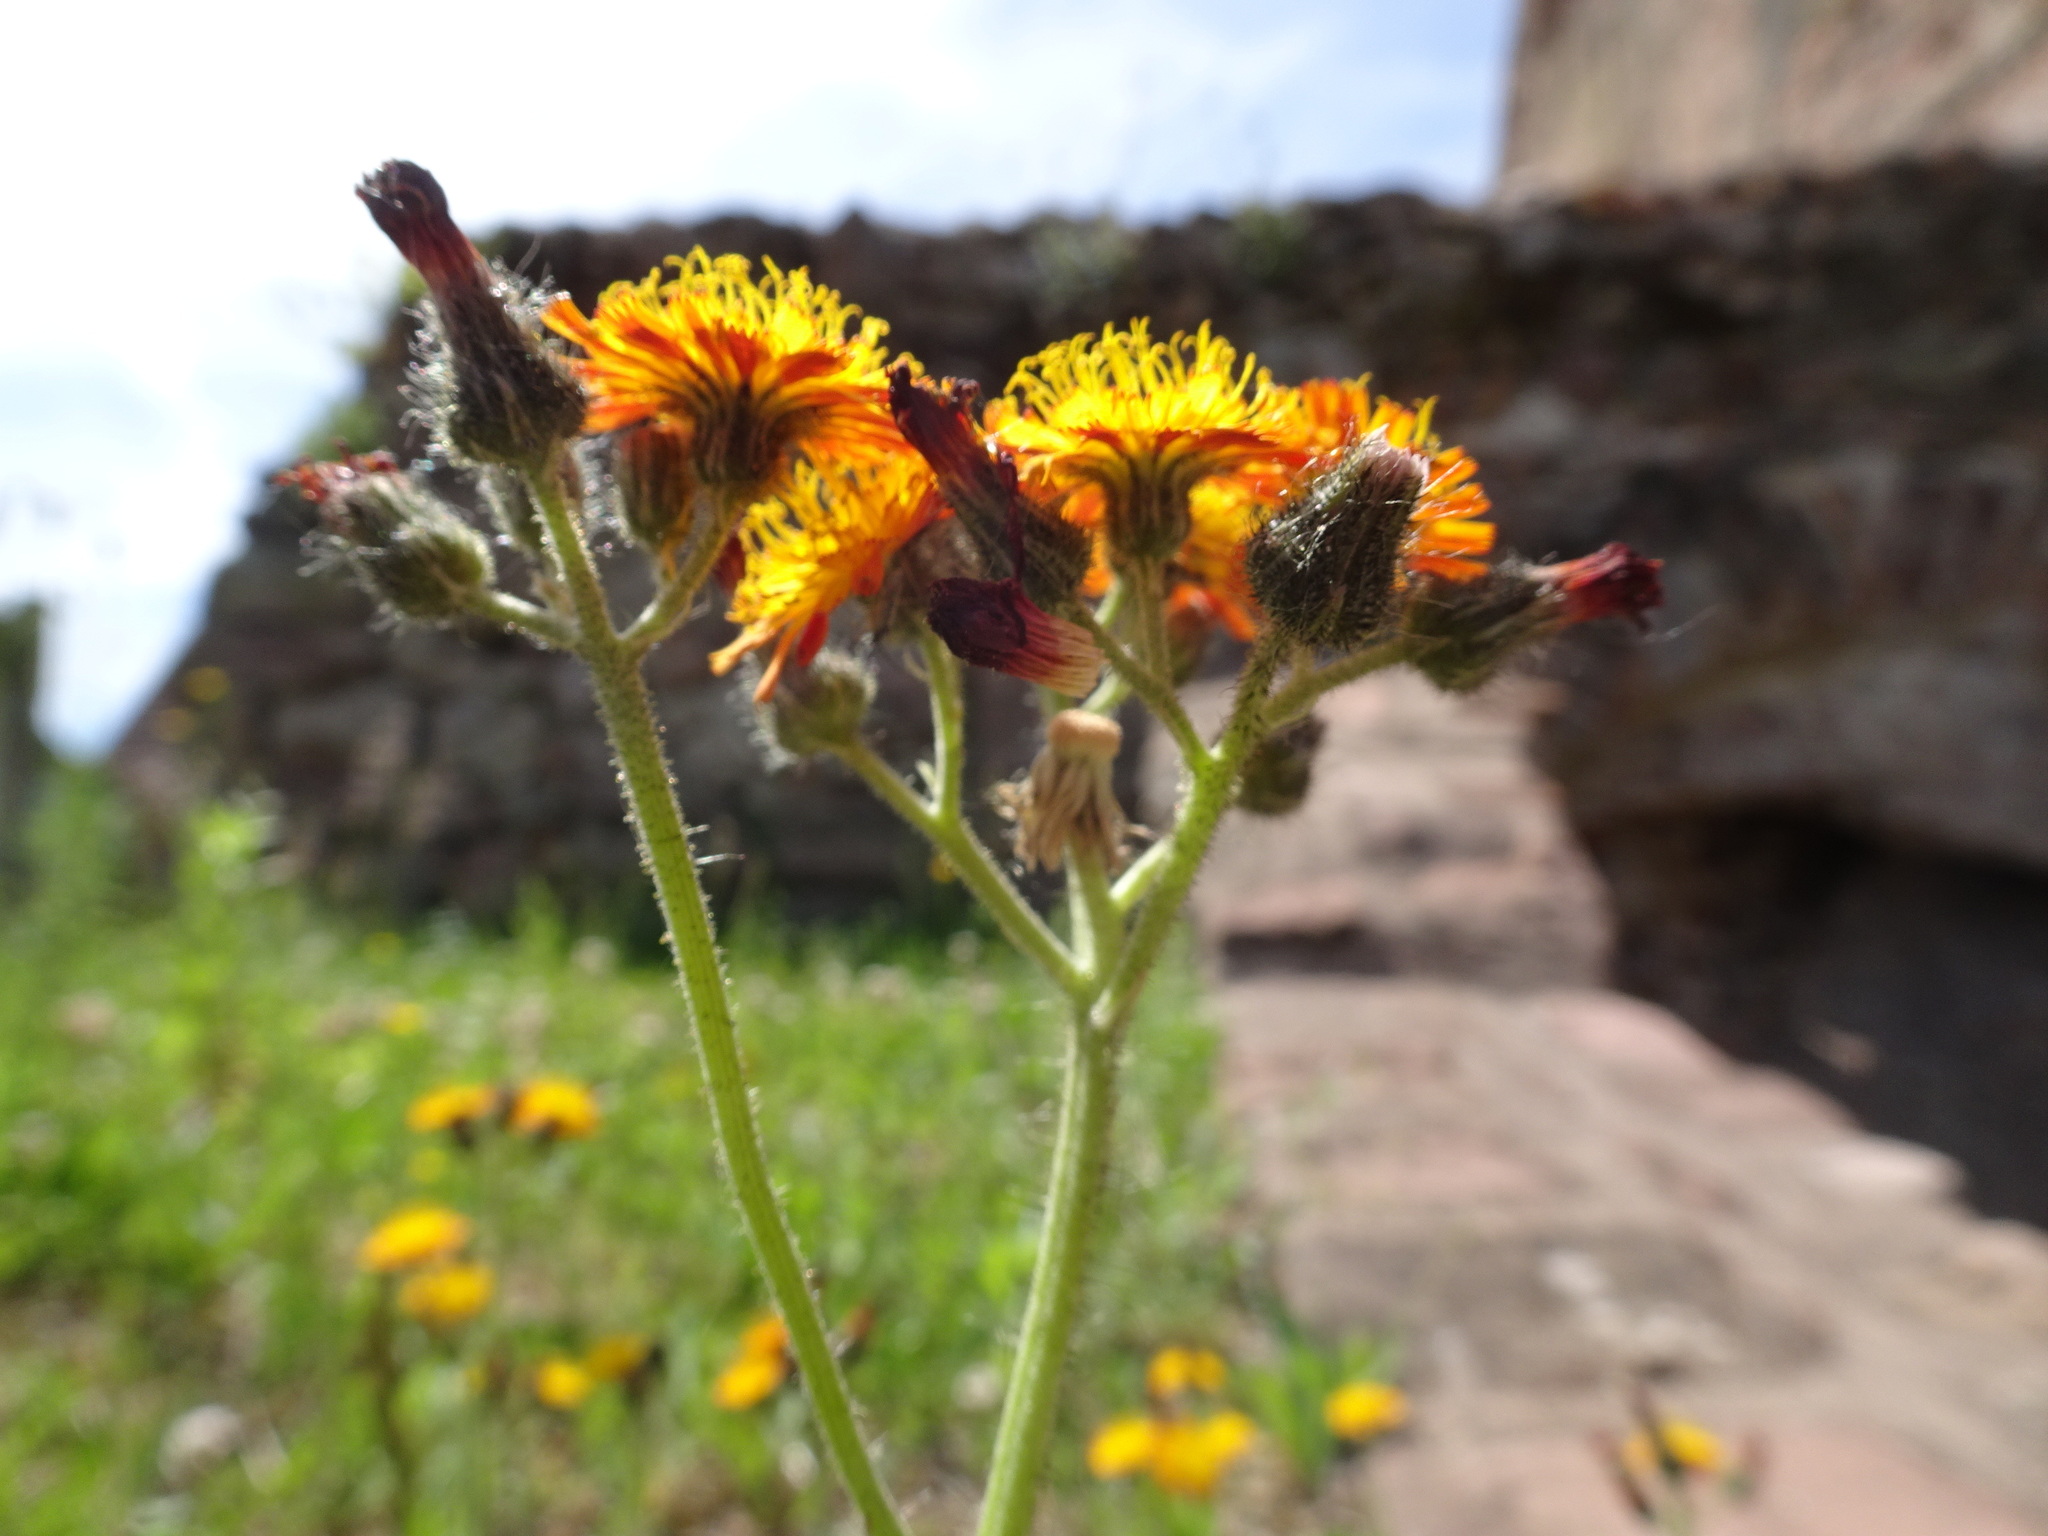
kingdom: Plantae
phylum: Tracheophyta
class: Magnoliopsida
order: Asterales
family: Asteraceae
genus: Pilosella
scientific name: Pilosella aurantiaca
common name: Fox-and-cubs
